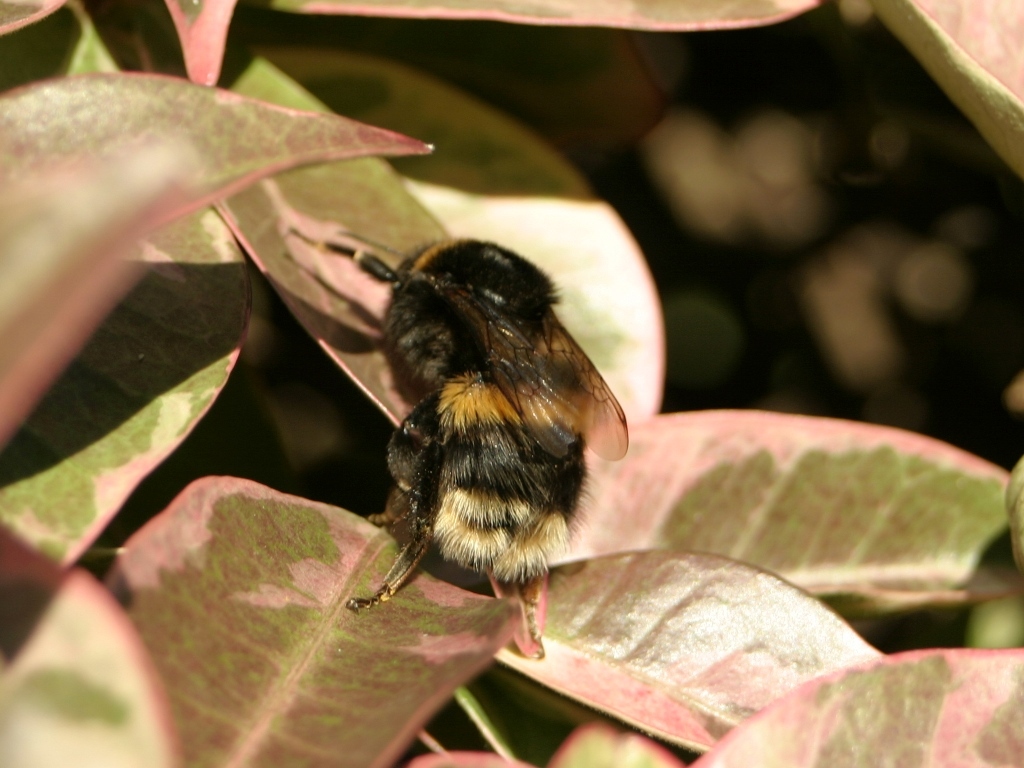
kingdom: Animalia
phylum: Arthropoda
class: Insecta
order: Hymenoptera
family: Apidae
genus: Bombus
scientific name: Bombus terrestris
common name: Buff-tailed bumblebee
